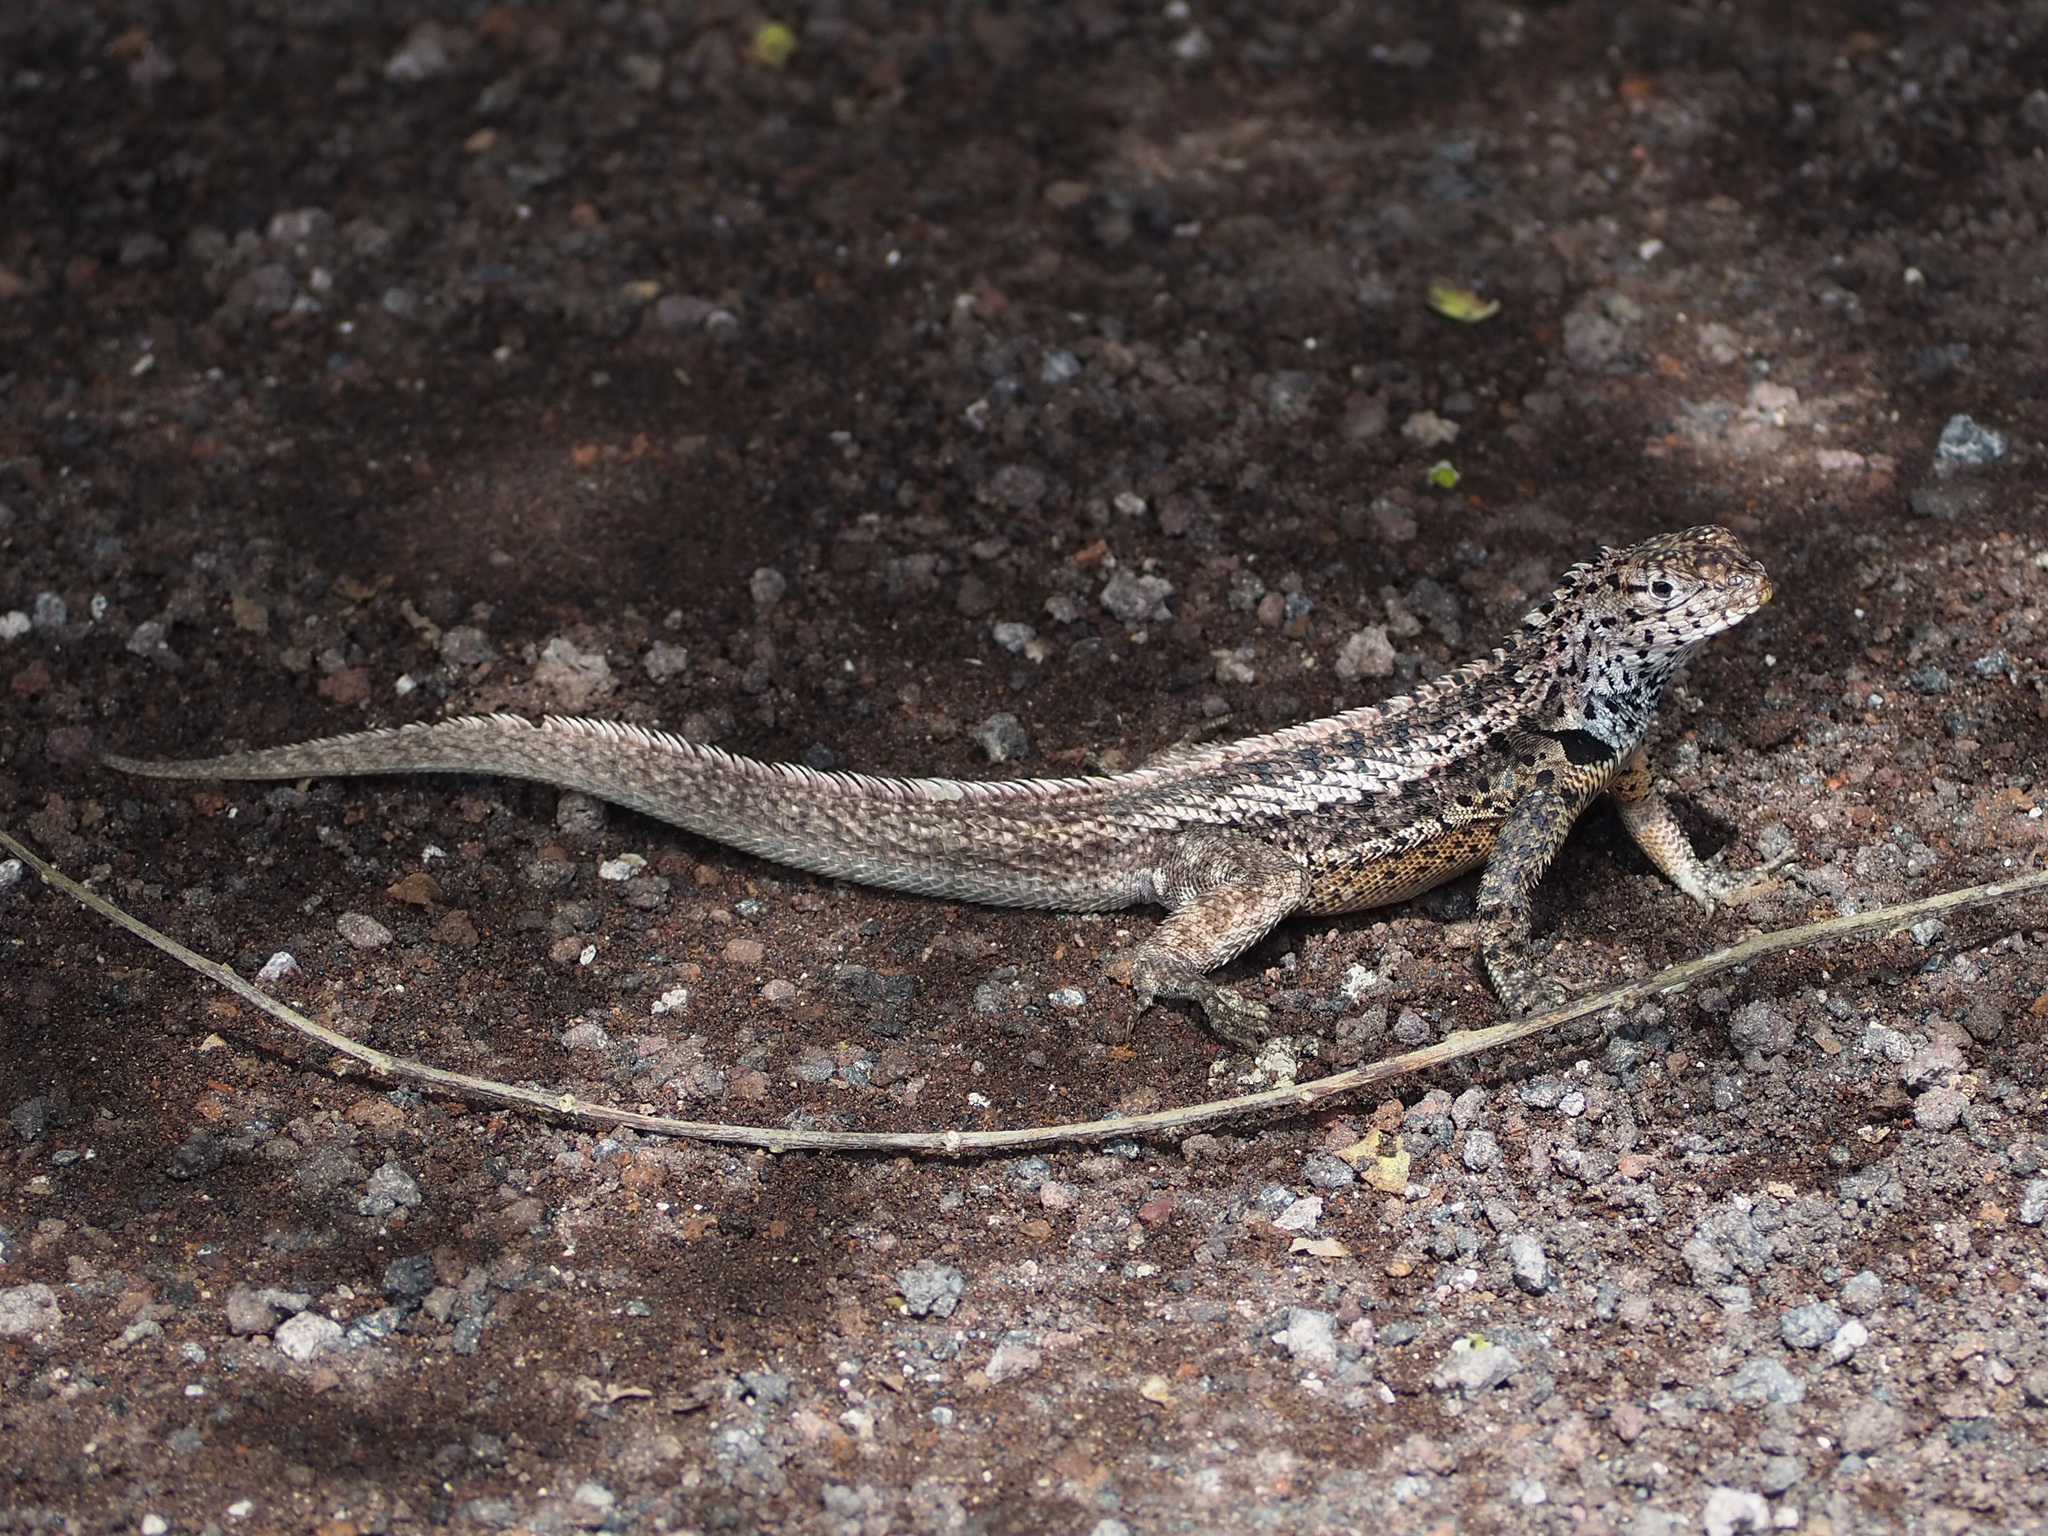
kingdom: Animalia
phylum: Chordata
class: Squamata
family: Tropiduridae
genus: Microlophus
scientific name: Microlophus albemarlensis
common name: Galapagos lava lizard
